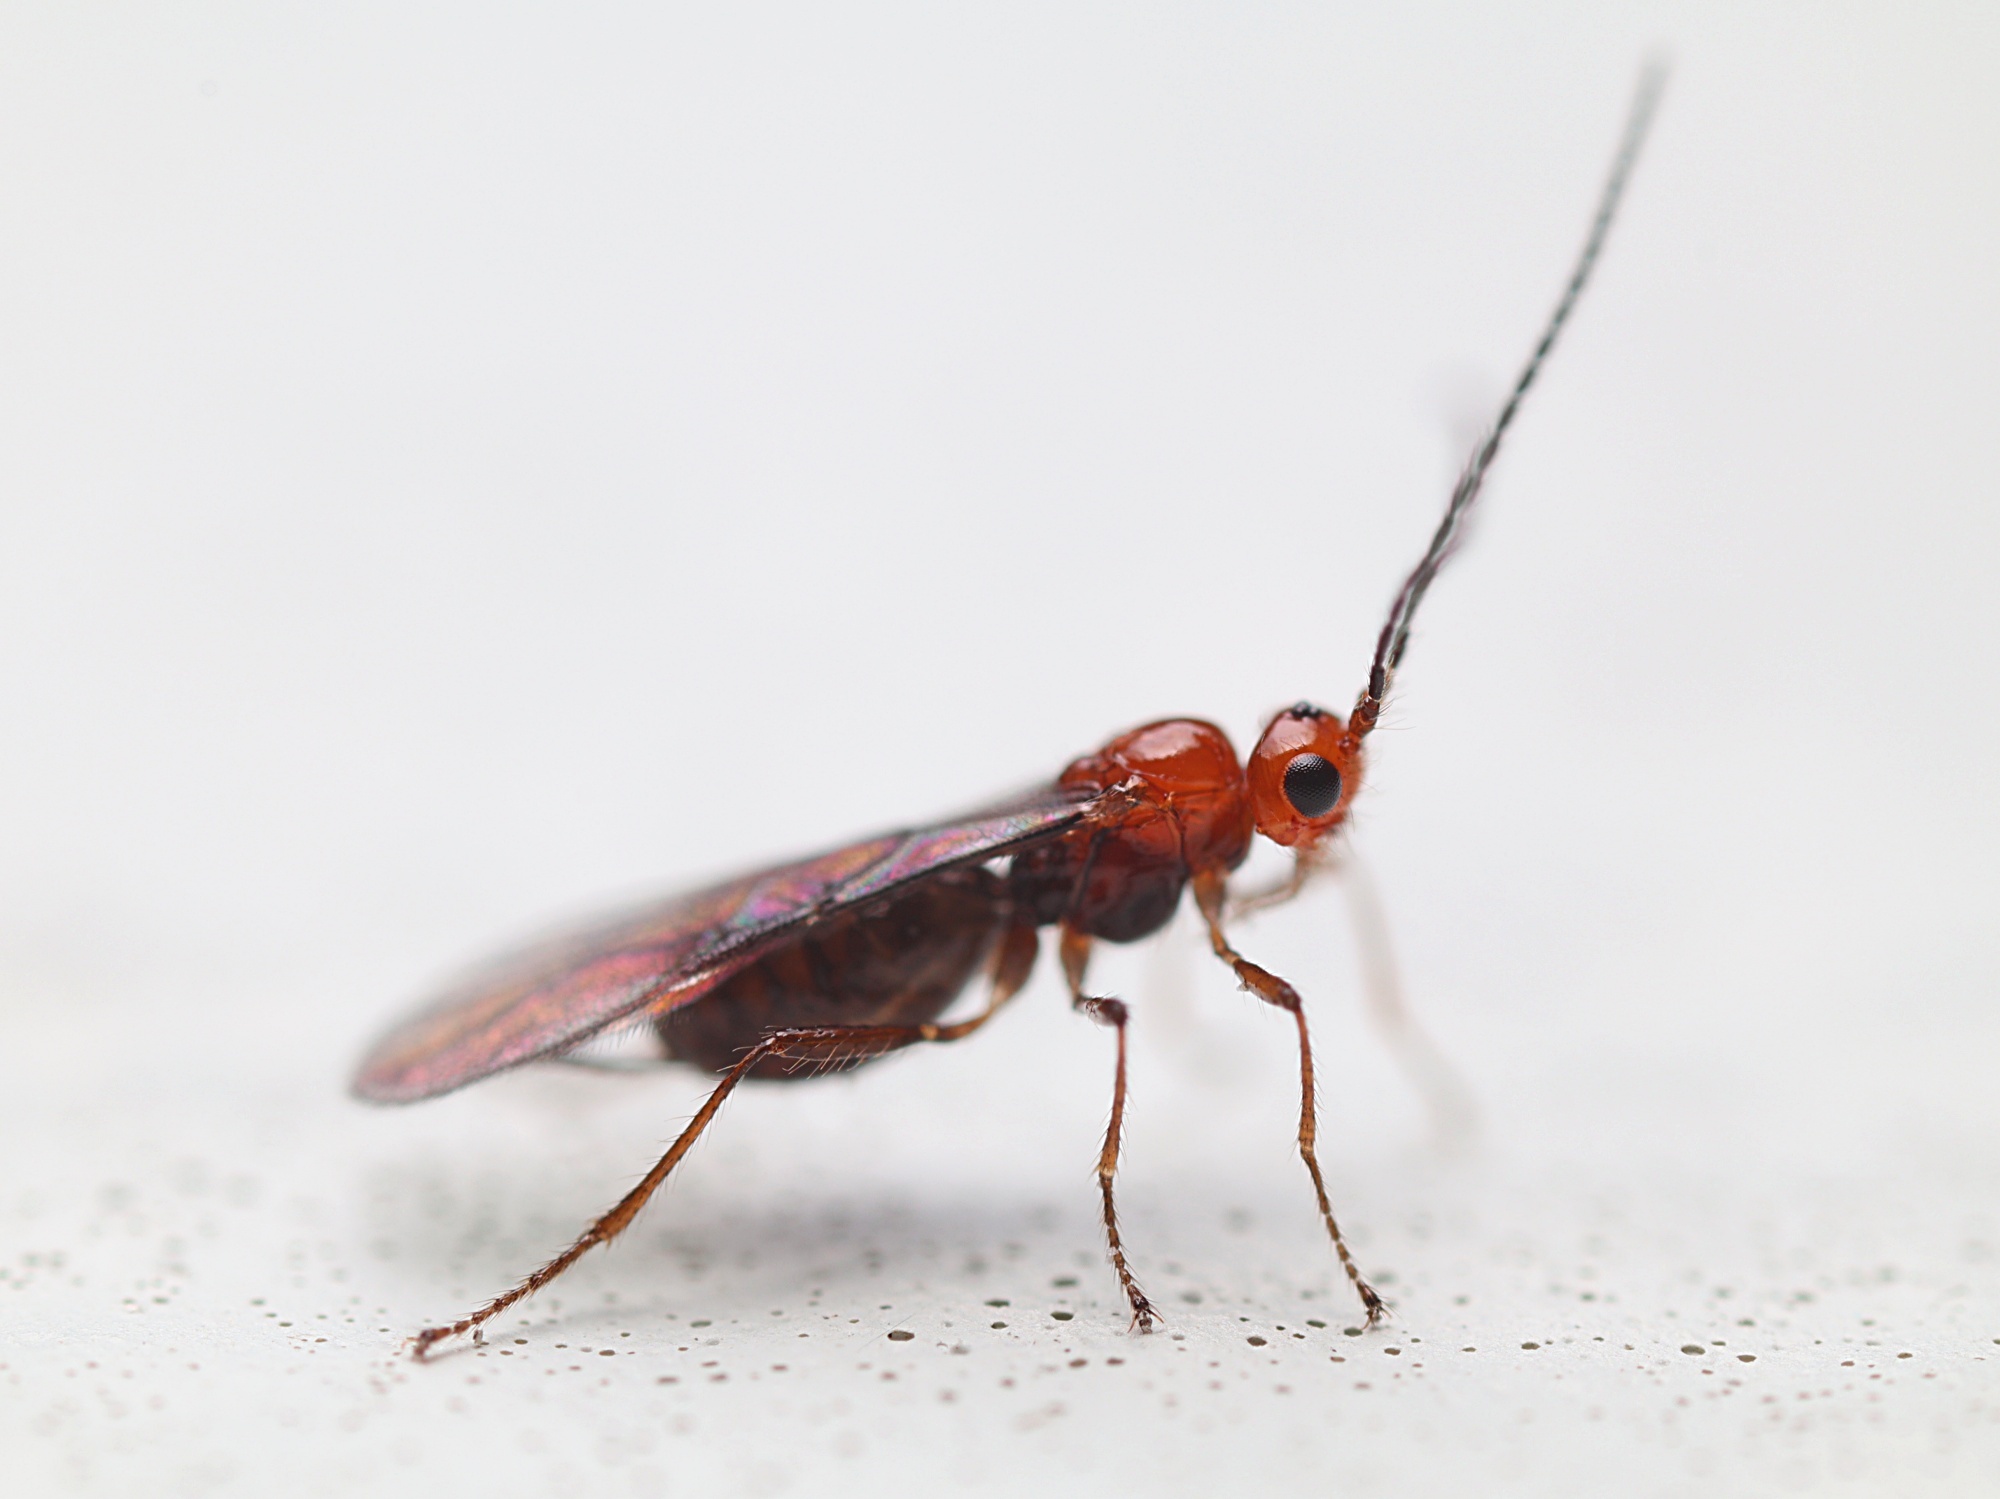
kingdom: Animalia
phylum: Arthropoda
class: Insecta
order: Hymenoptera
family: Braconidae
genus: Asobara
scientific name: Asobara antipoda
